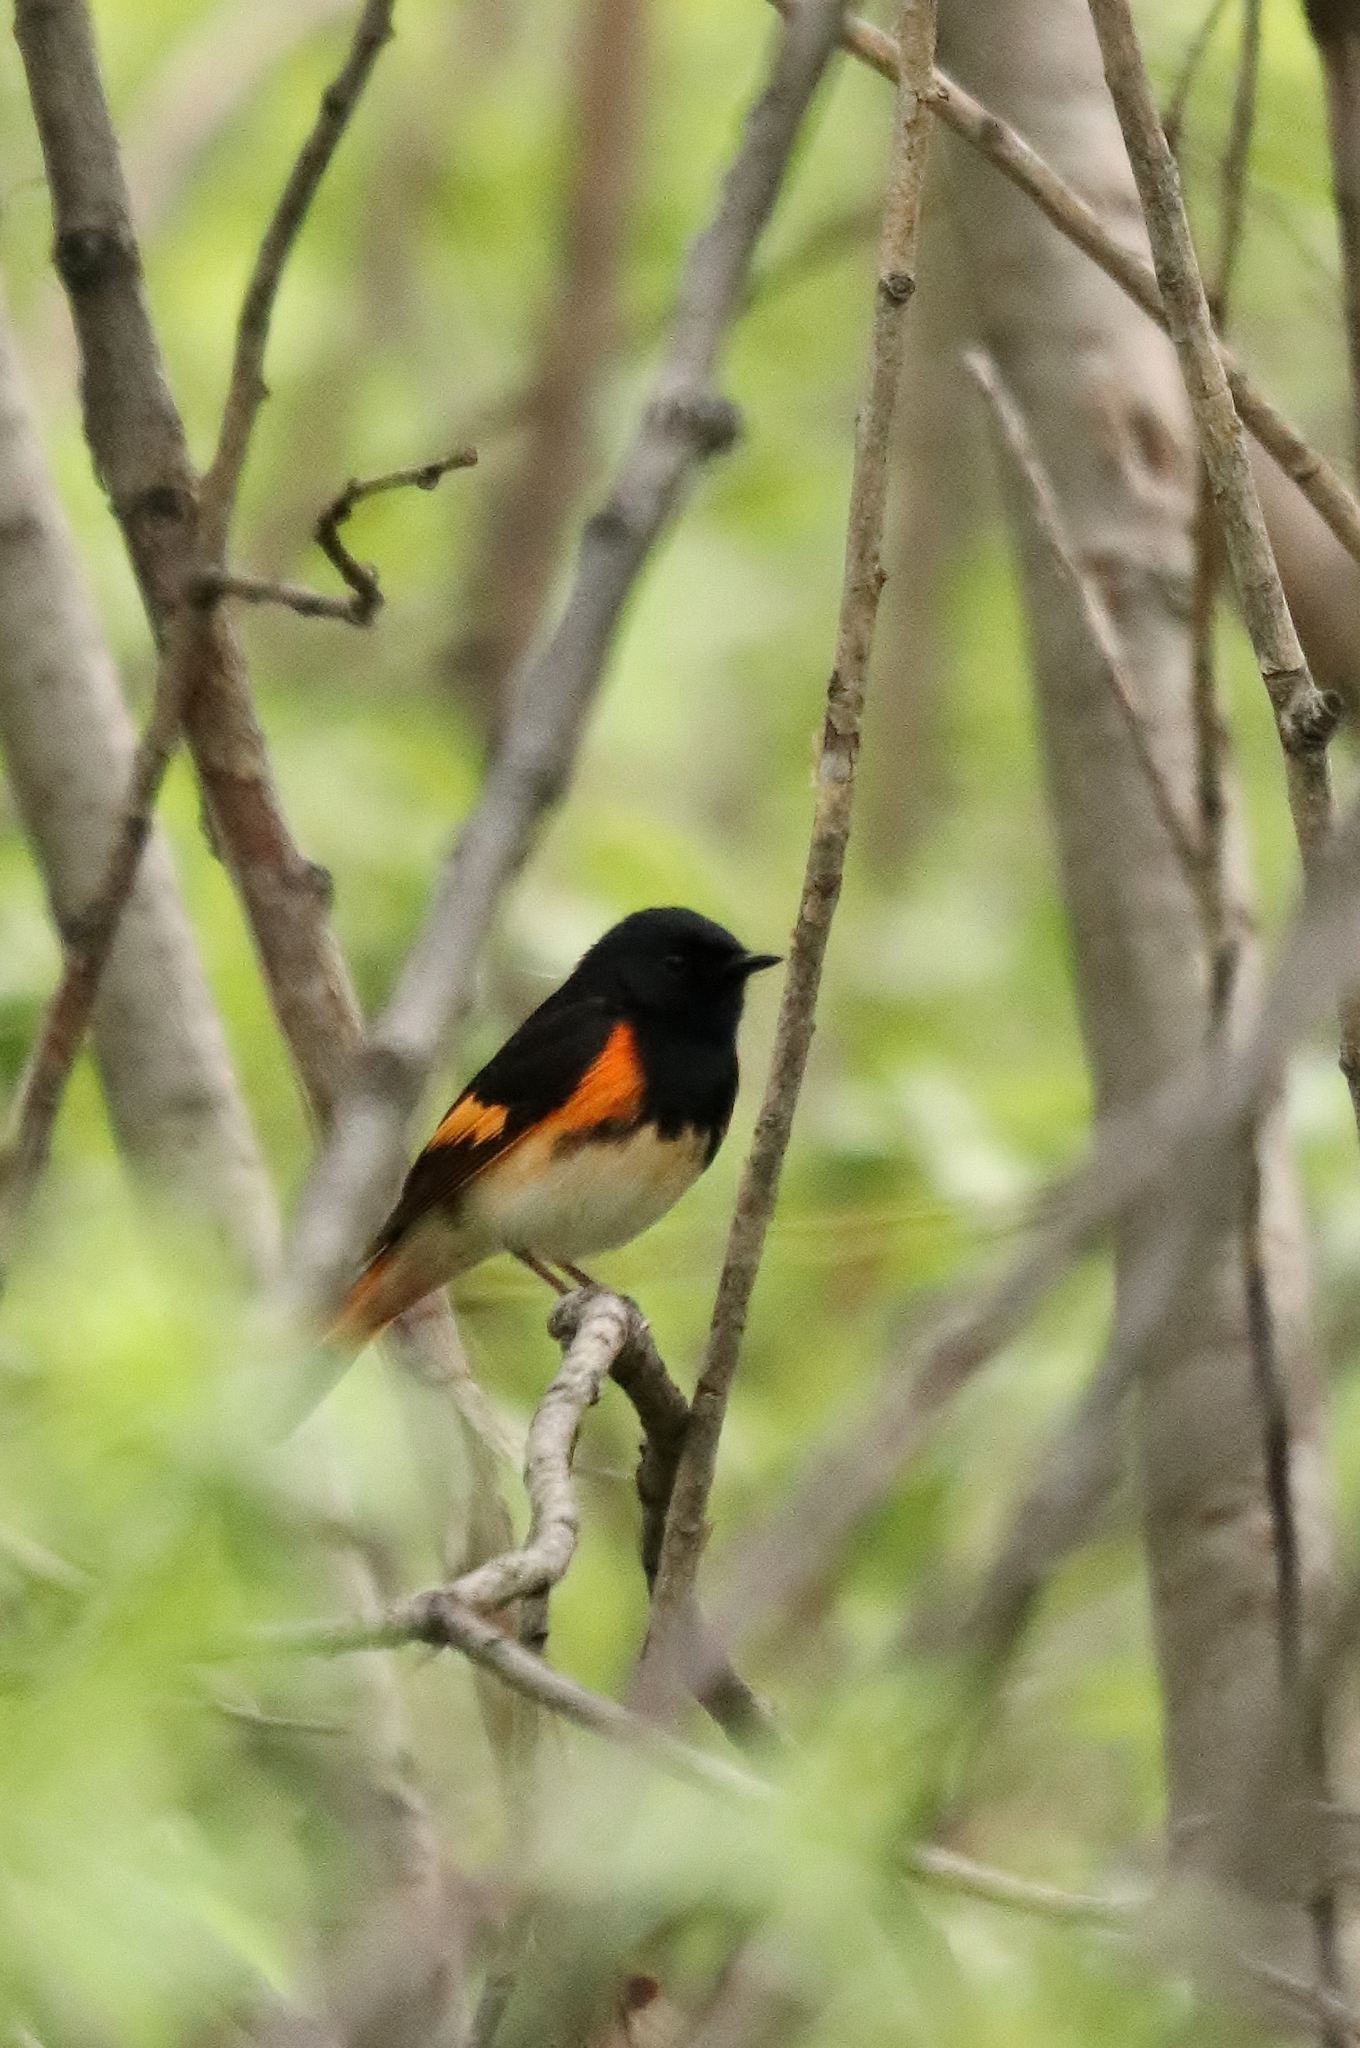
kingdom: Animalia
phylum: Chordata
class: Aves
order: Passeriformes
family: Parulidae
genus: Setophaga
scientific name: Setophaga ruticilla
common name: American redstart
